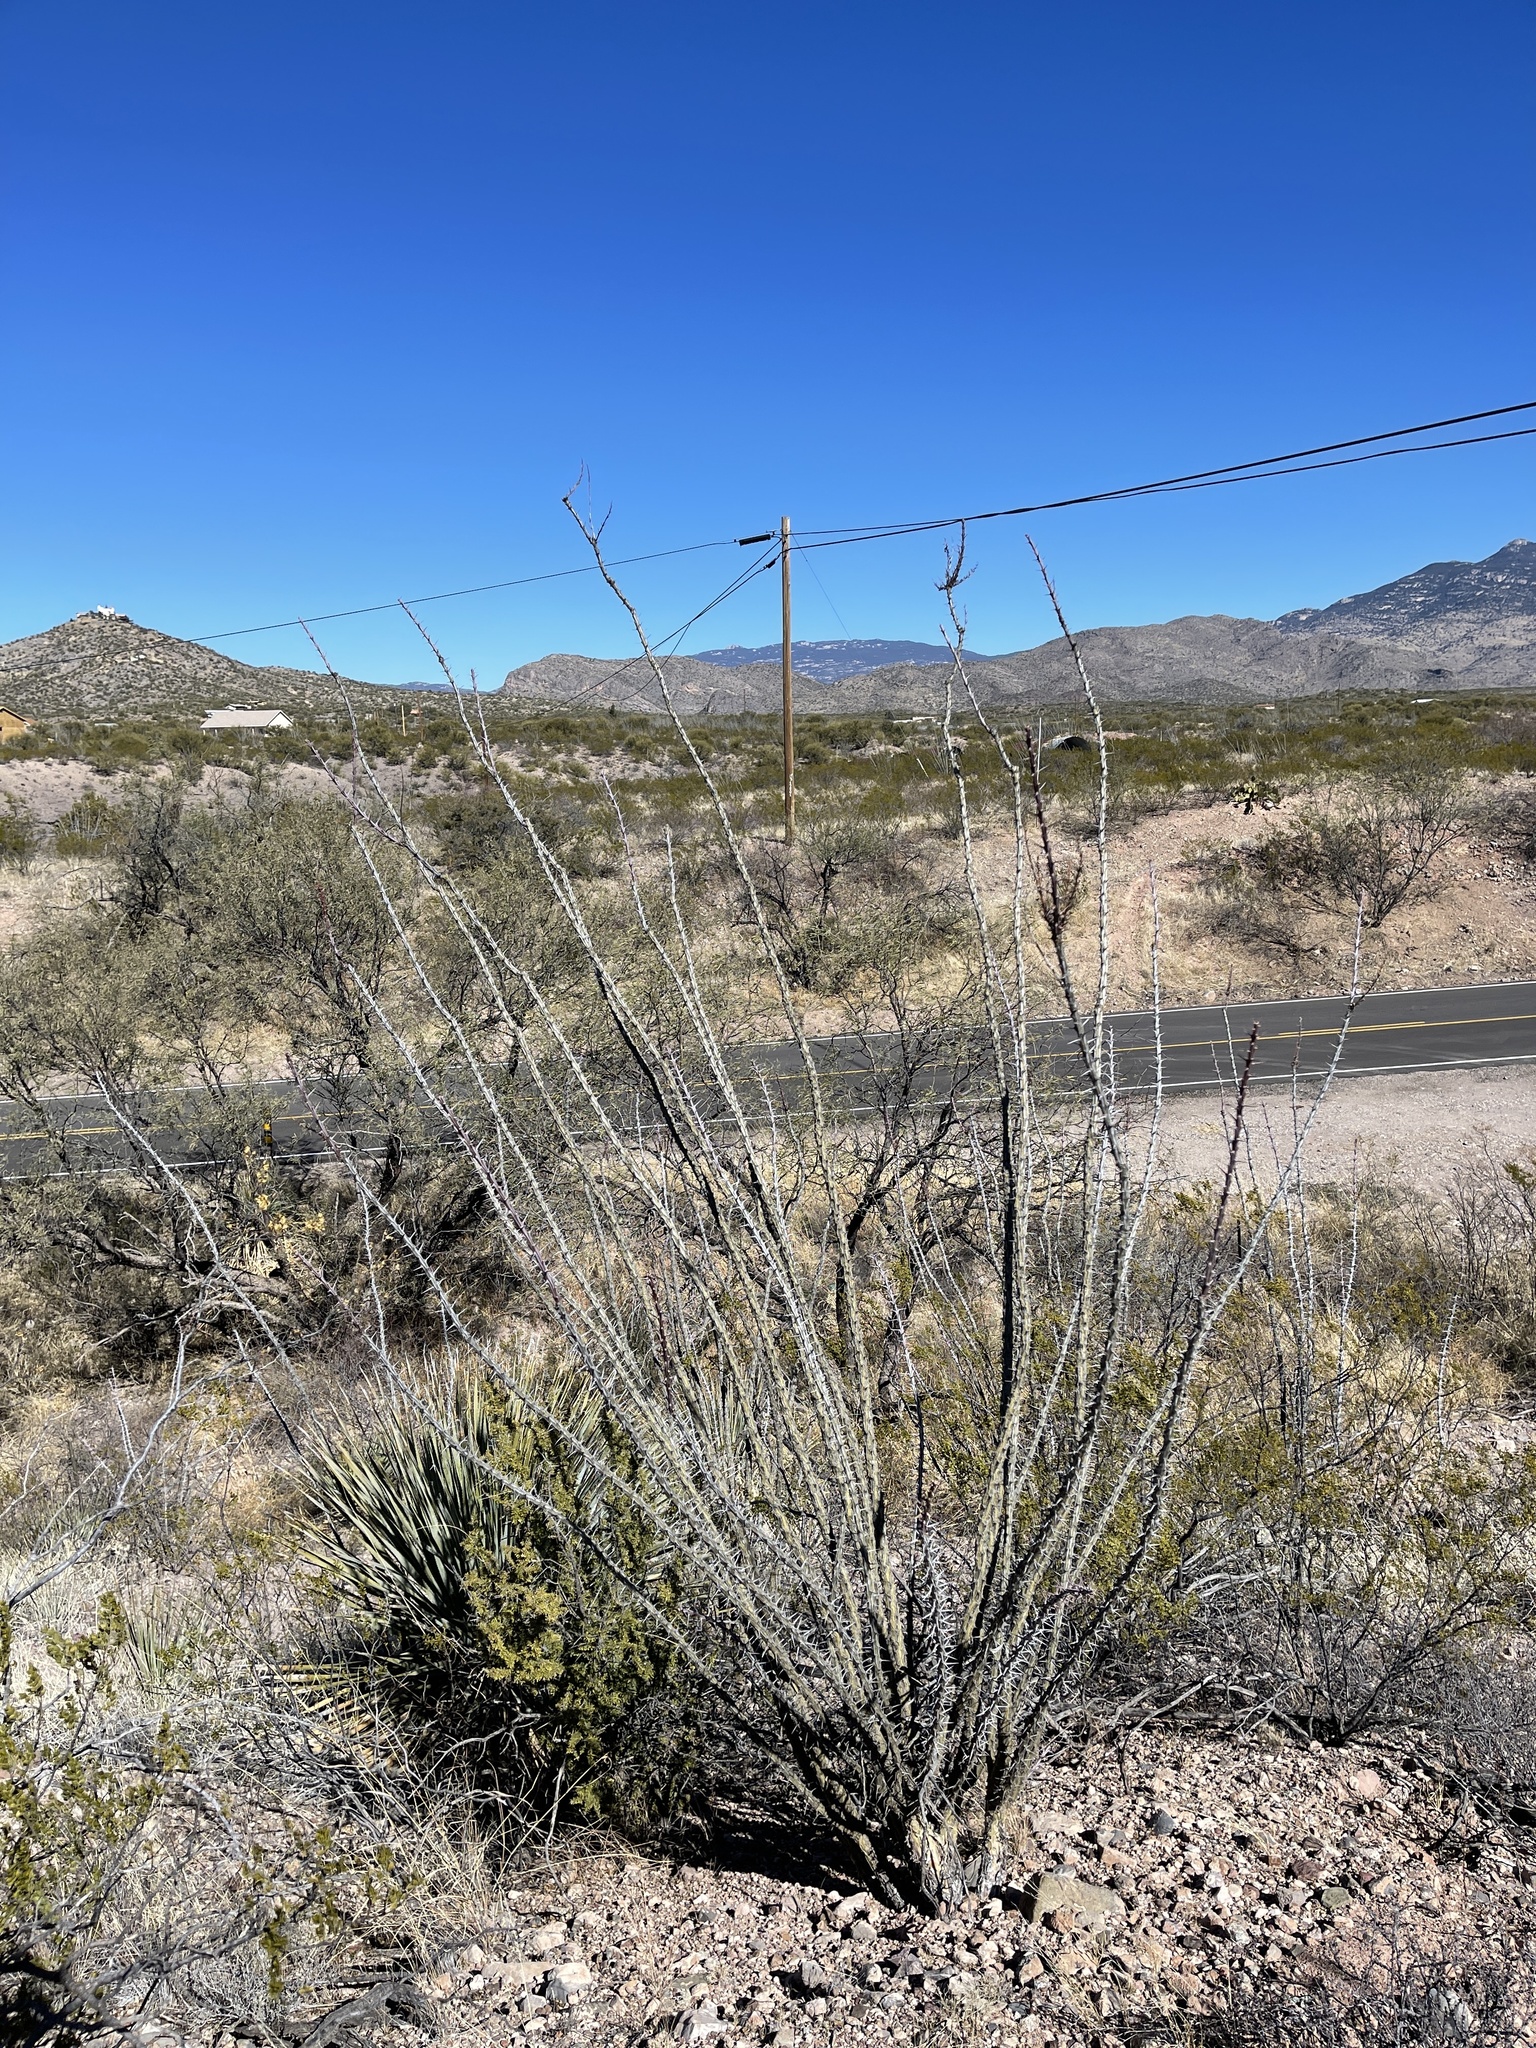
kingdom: Plantae
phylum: Tracheophyta
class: Magnoliopsida
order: Ericales
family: Fouquieriaceae
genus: Fouquieria
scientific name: Fouquieria splendens
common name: Vine-cactus
